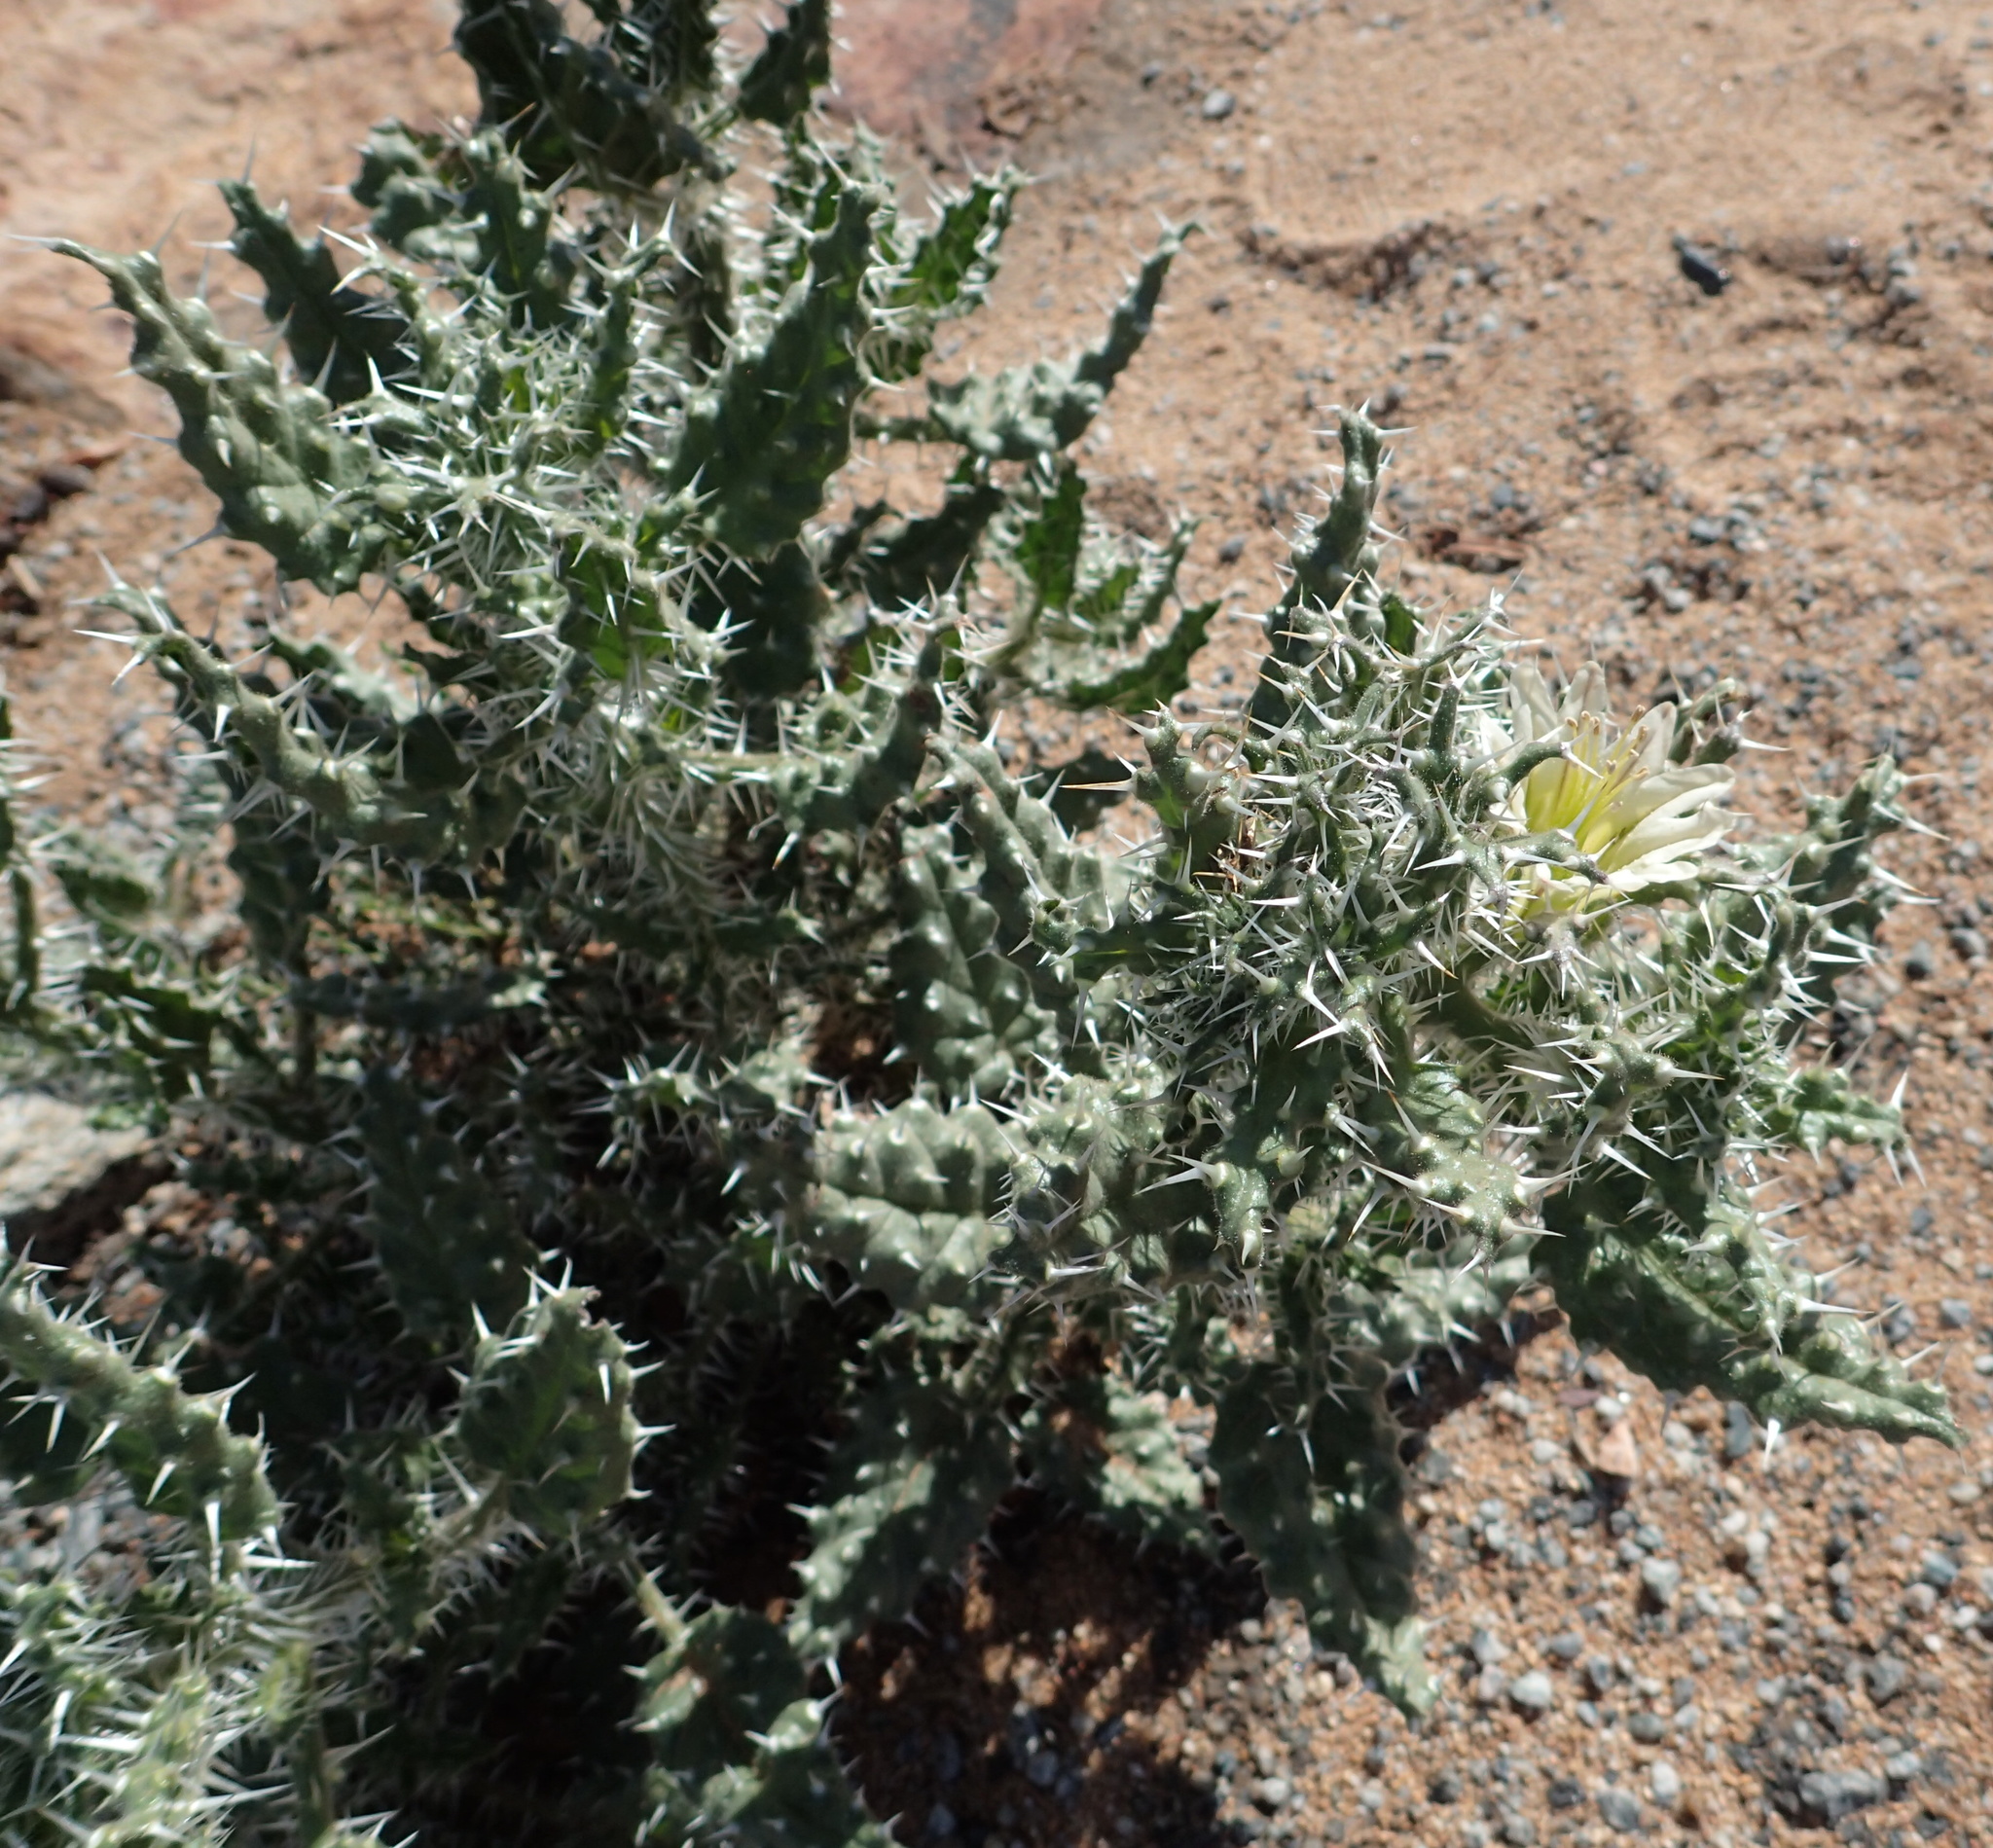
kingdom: Plantae
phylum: Tracheophyta
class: Magnoliopsida
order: Boraginales
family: Boraginaceae
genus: Codon
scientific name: Codon royenii
